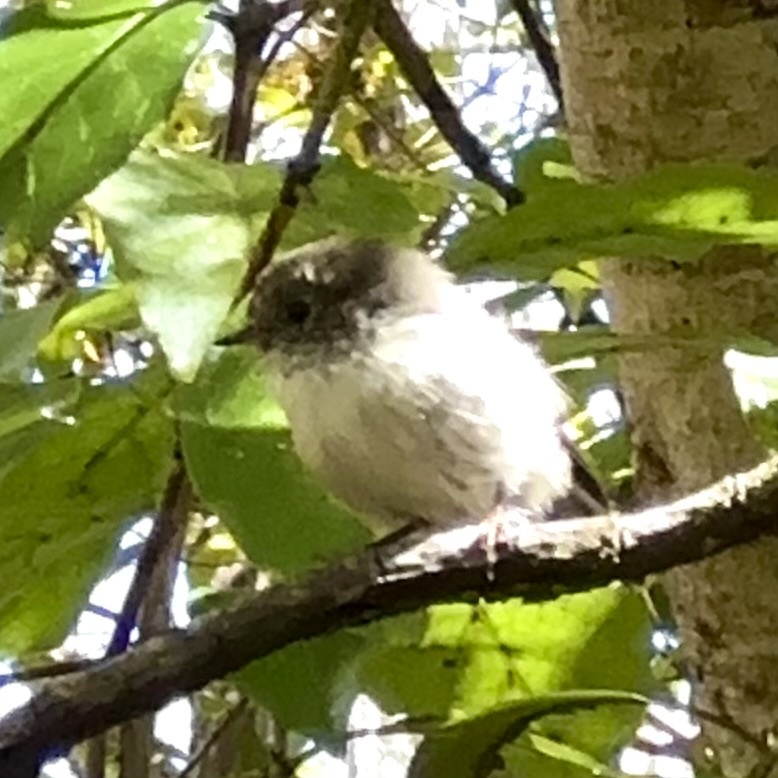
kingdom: Animalia
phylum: Chordata
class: Aves
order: Passeriformes
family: Petroicidae
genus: Petroica
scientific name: Petroica macrocephala
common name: Tomtit
